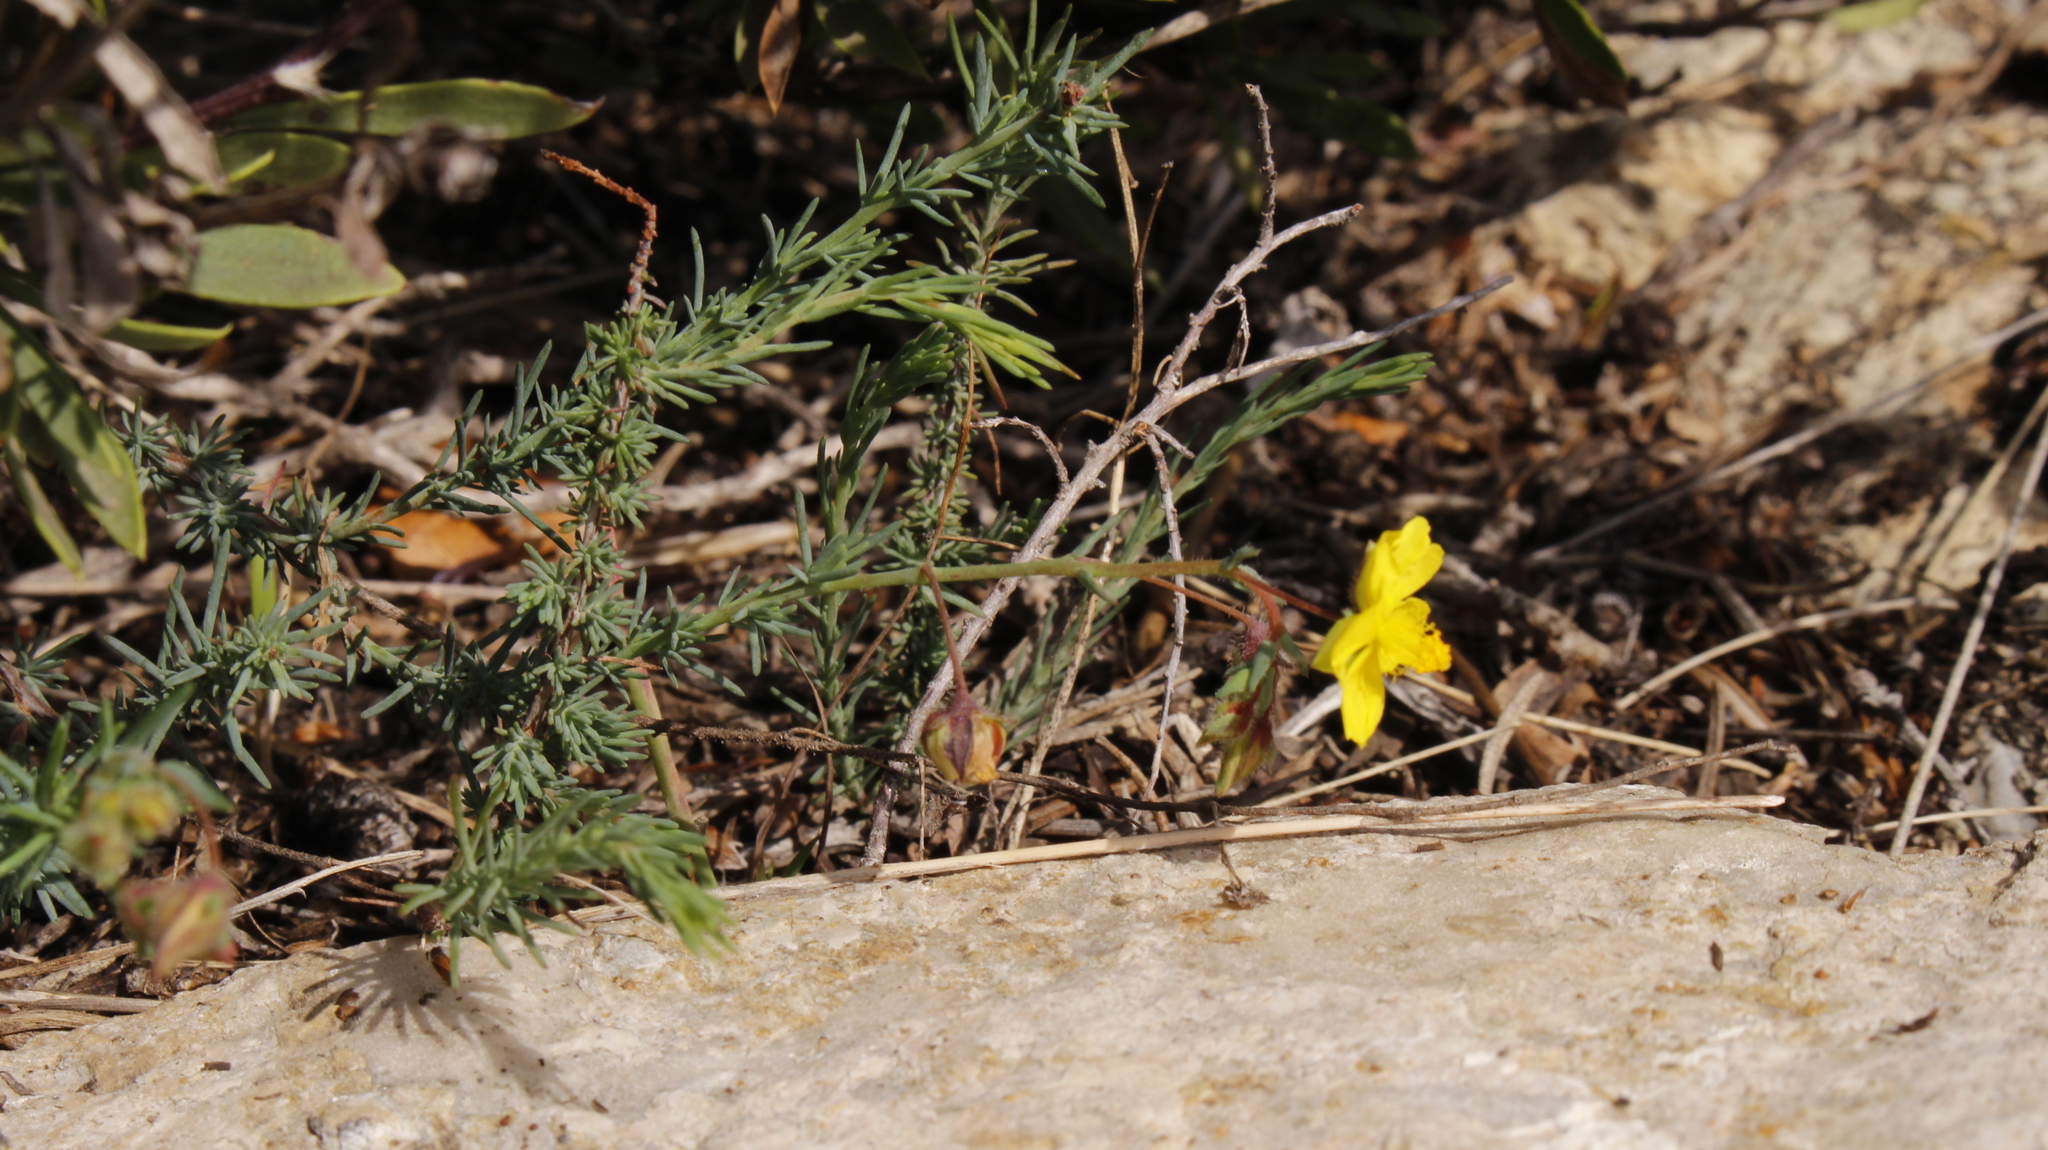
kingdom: Plantae
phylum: Tracheophyta
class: Magnoliopsida
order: Malvales
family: Cistaceae
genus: Fumana
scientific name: Fumana laevipes
